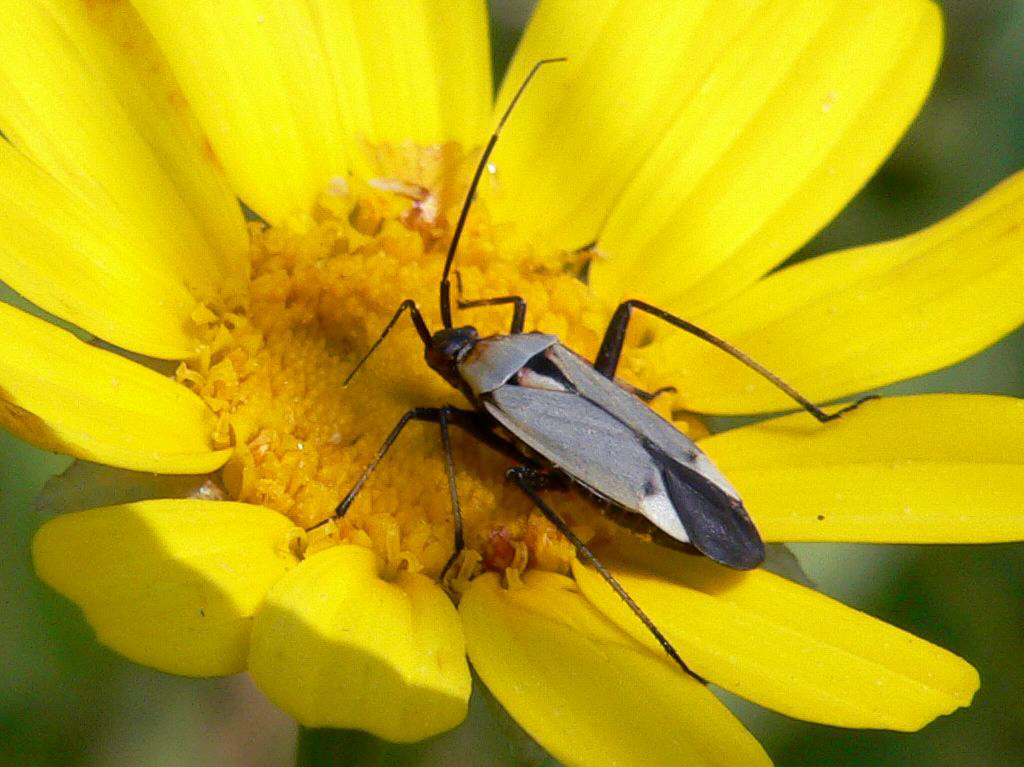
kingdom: Animalia
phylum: Arthropoda
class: Insecta
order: Hemiptera
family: Miridae
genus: Calocoris
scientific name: Calocoris nemoralis
